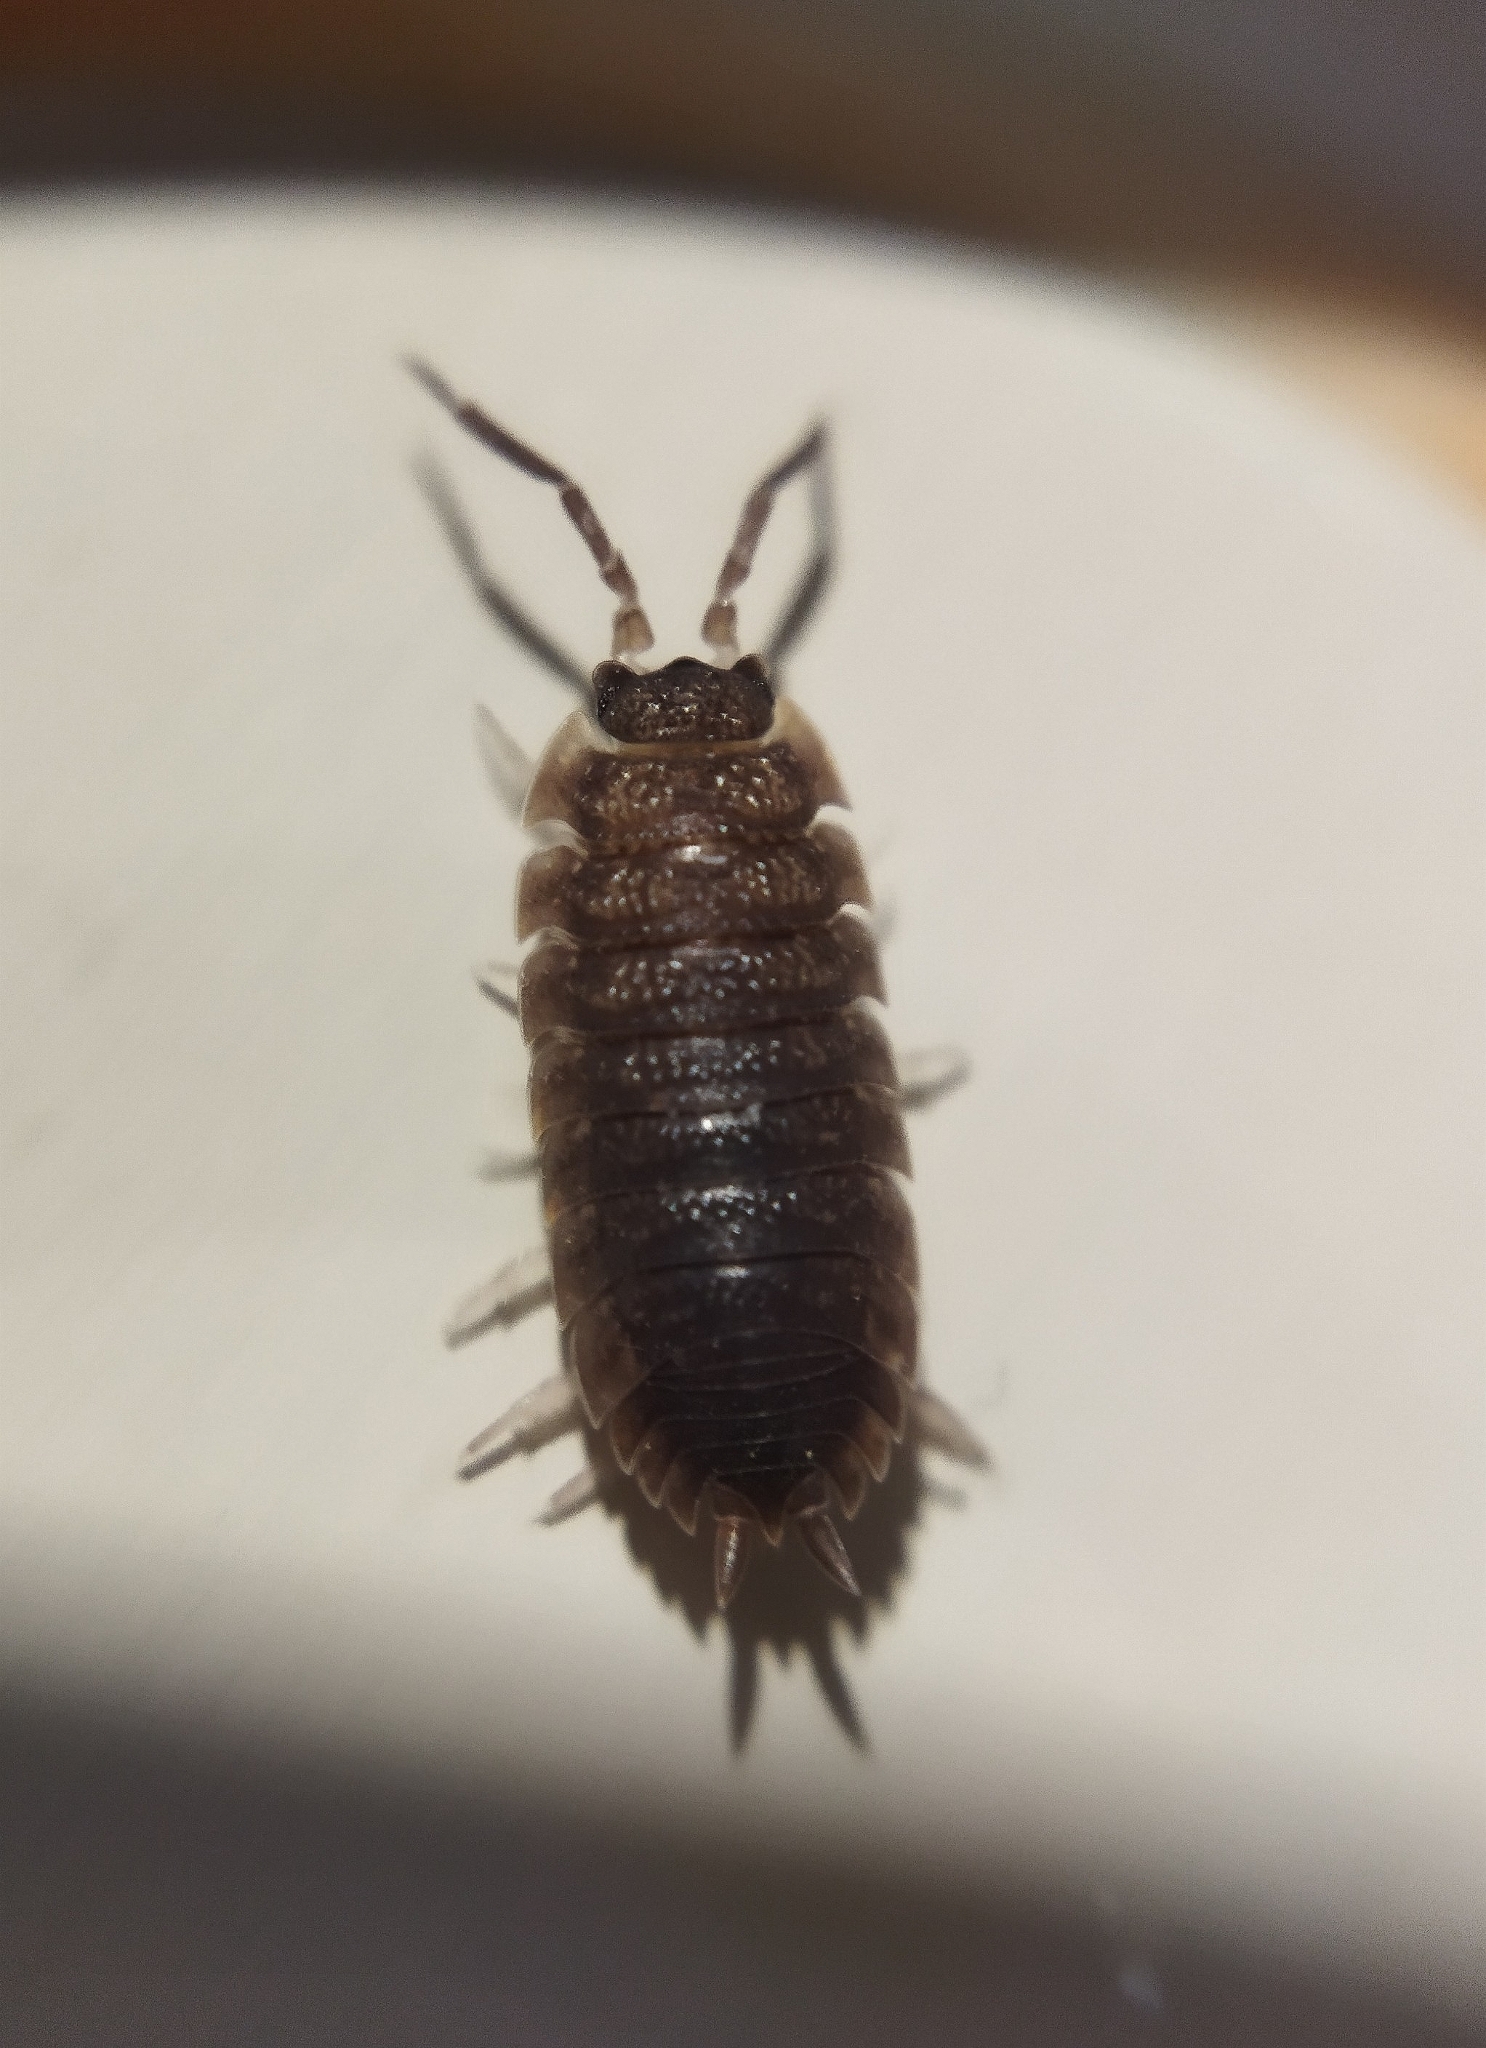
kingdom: Animalia
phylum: Arthropoda
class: Malacostraca
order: Isopoda
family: Porcellionidae
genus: Porcellio
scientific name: Porcellio scaber
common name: Common rough woodlouse
